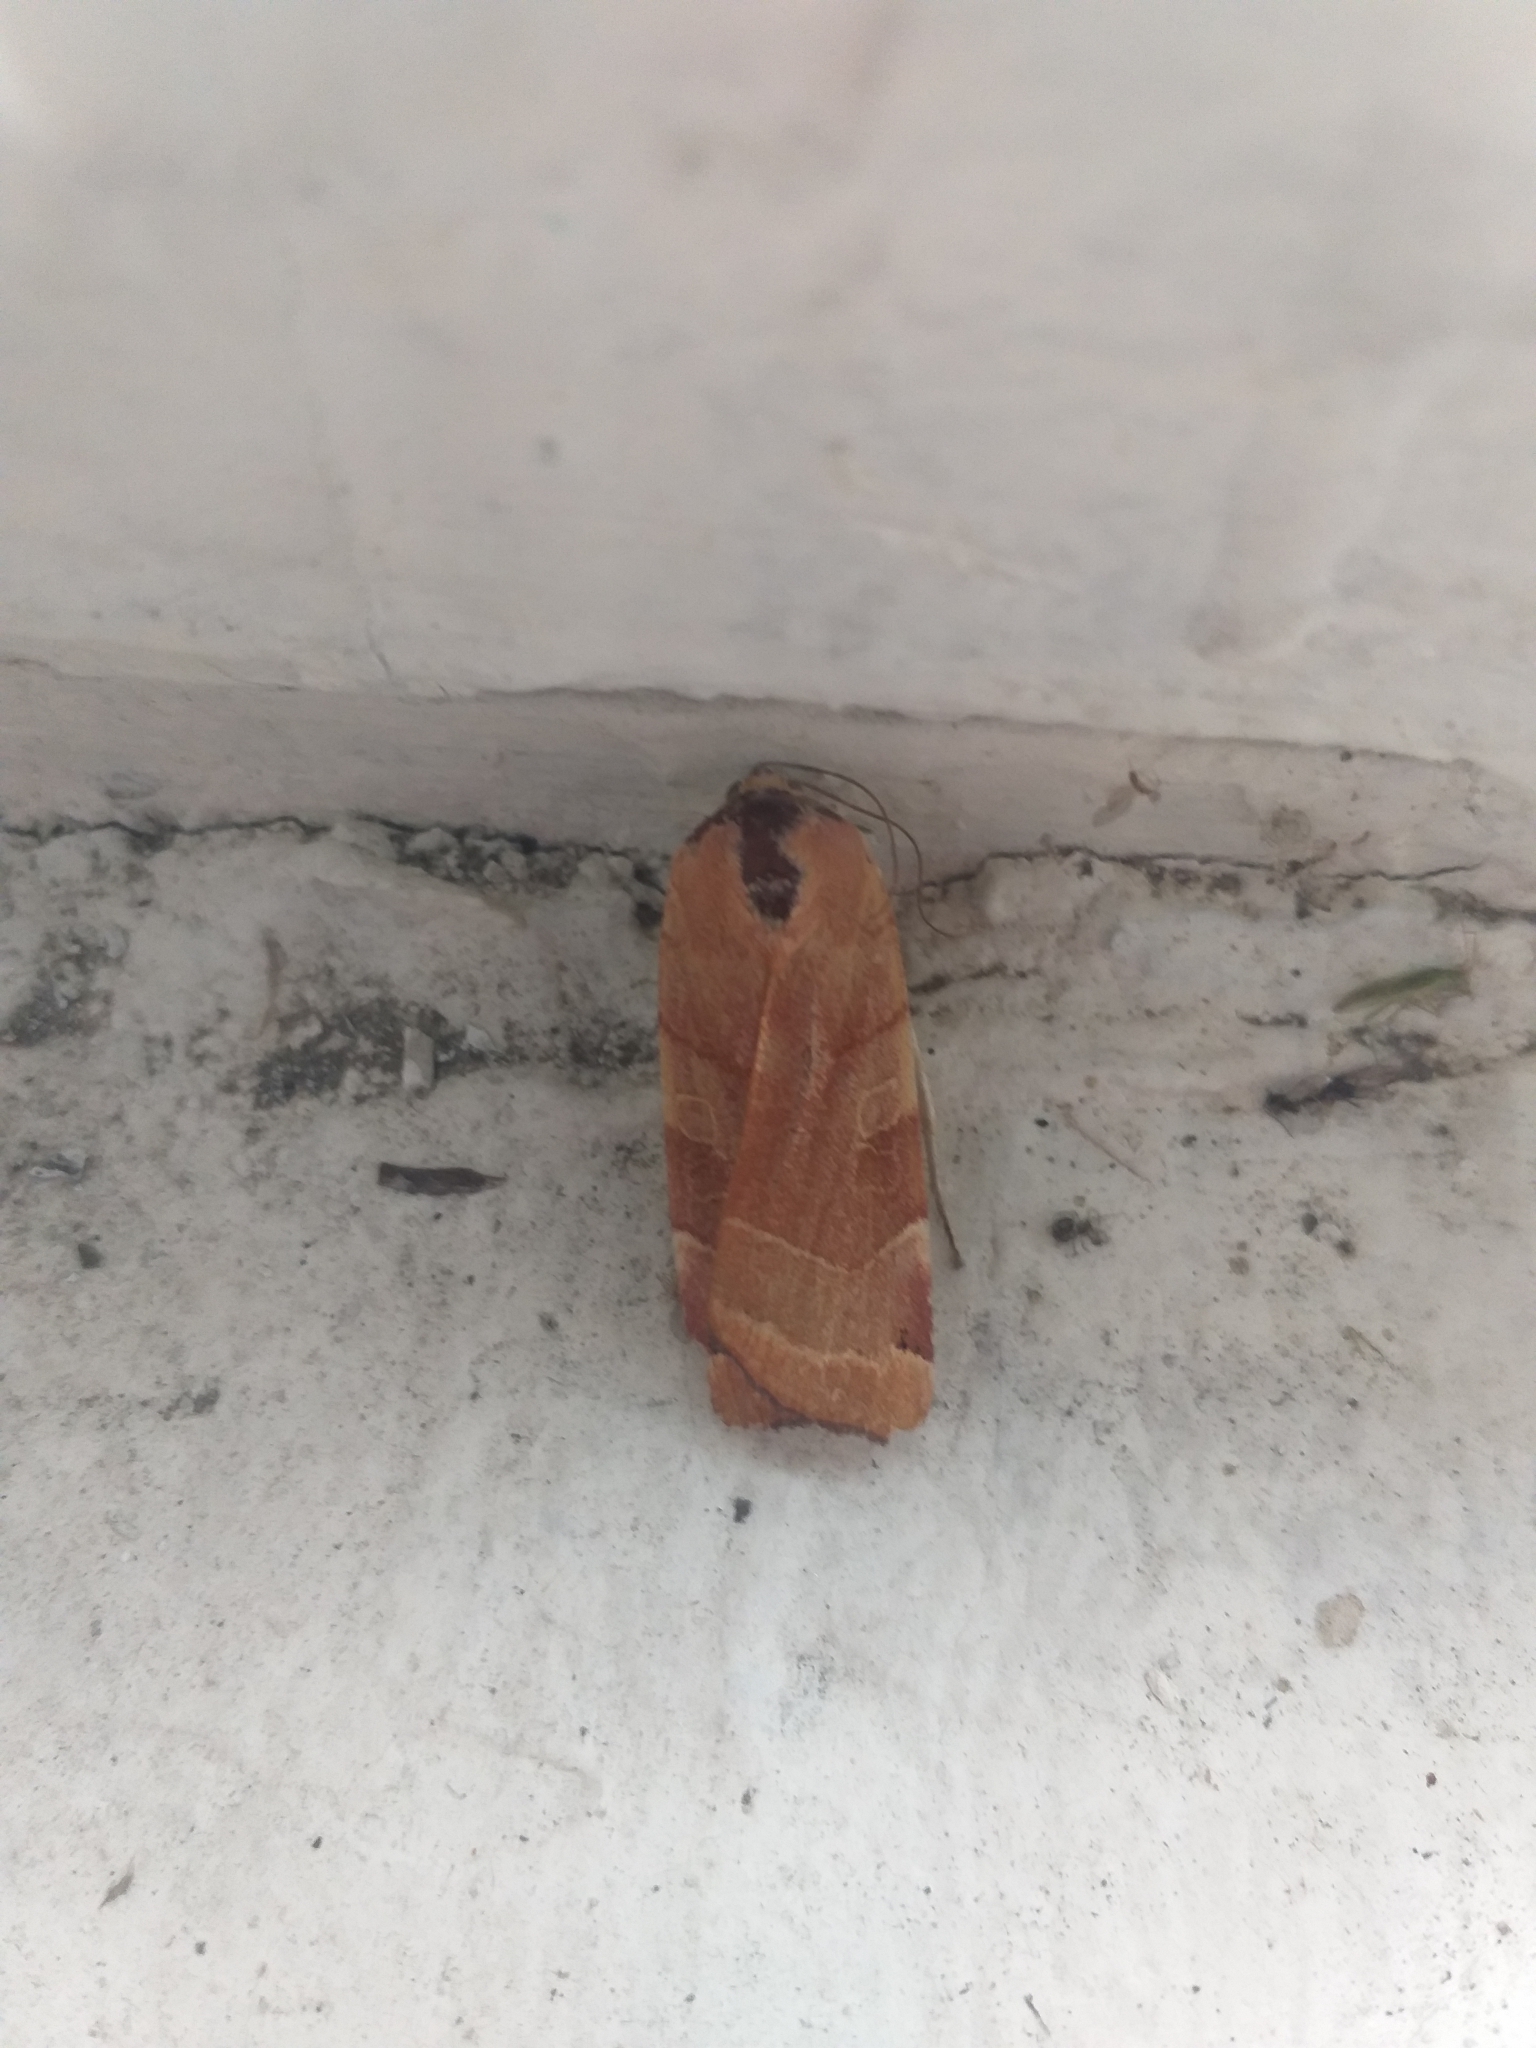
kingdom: Animalia
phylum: Arthropoda
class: Insecta
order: Lepidoptera
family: Noctuidae
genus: Noctua
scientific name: Noctua fimbriata
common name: Broad-bordered yellow underwing
